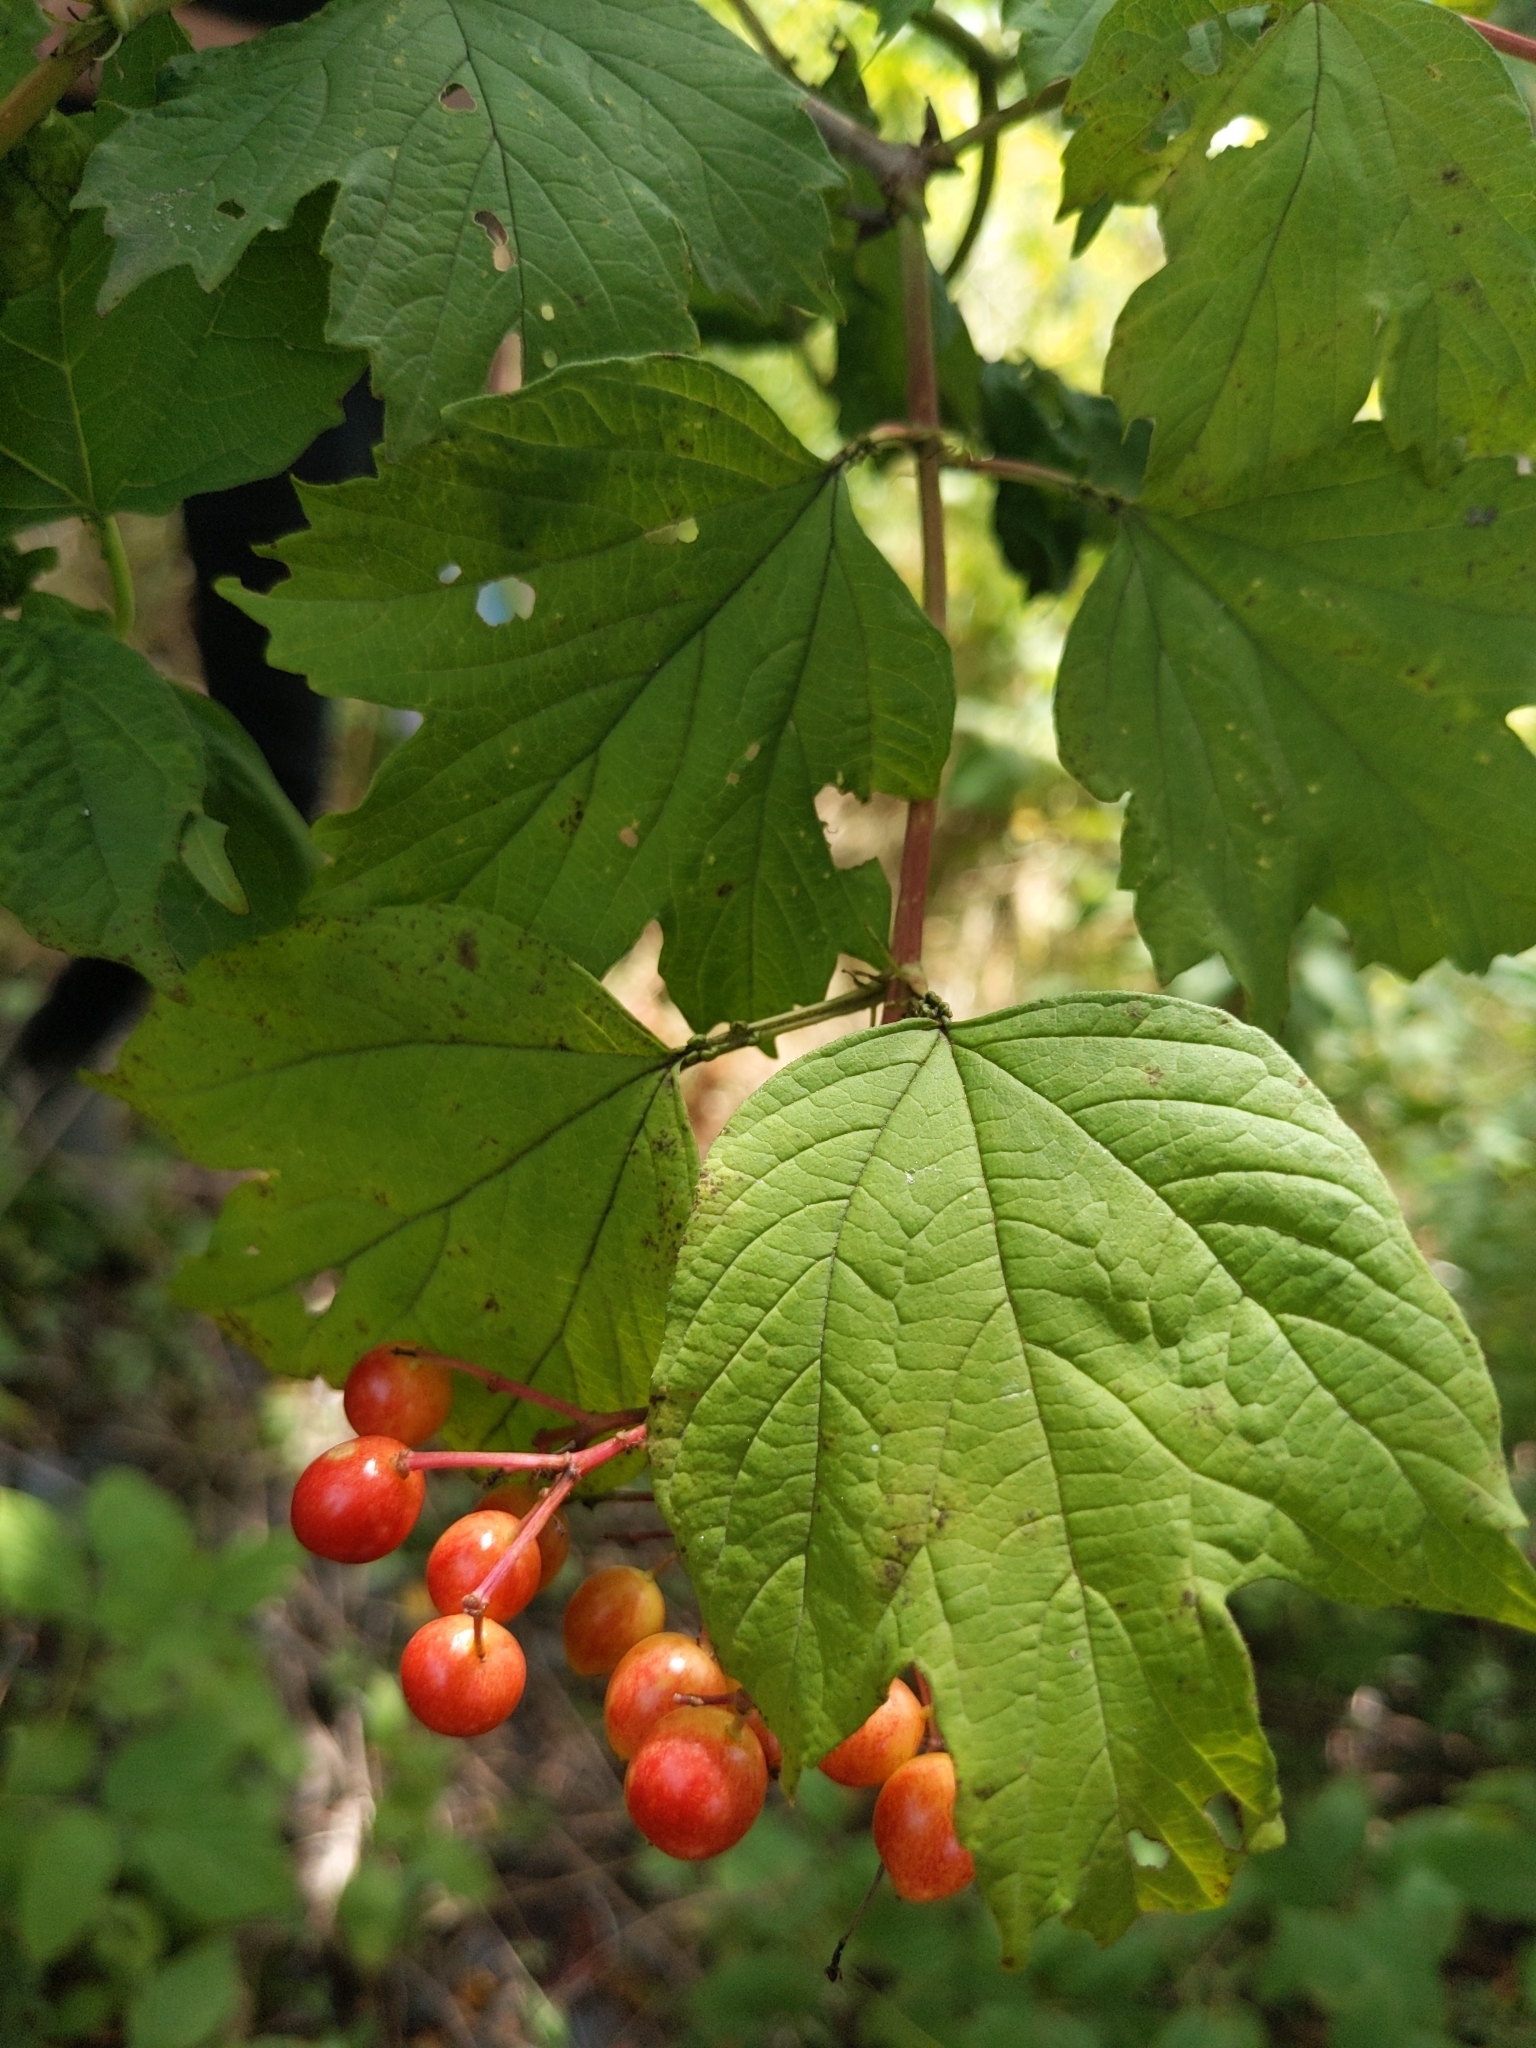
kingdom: Plantae
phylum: Tracheophyta
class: Magnoliopsida
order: Dipsacales
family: Viburnaceae
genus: Viburnum
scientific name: Viburnum opulus
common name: Guelder-rose
